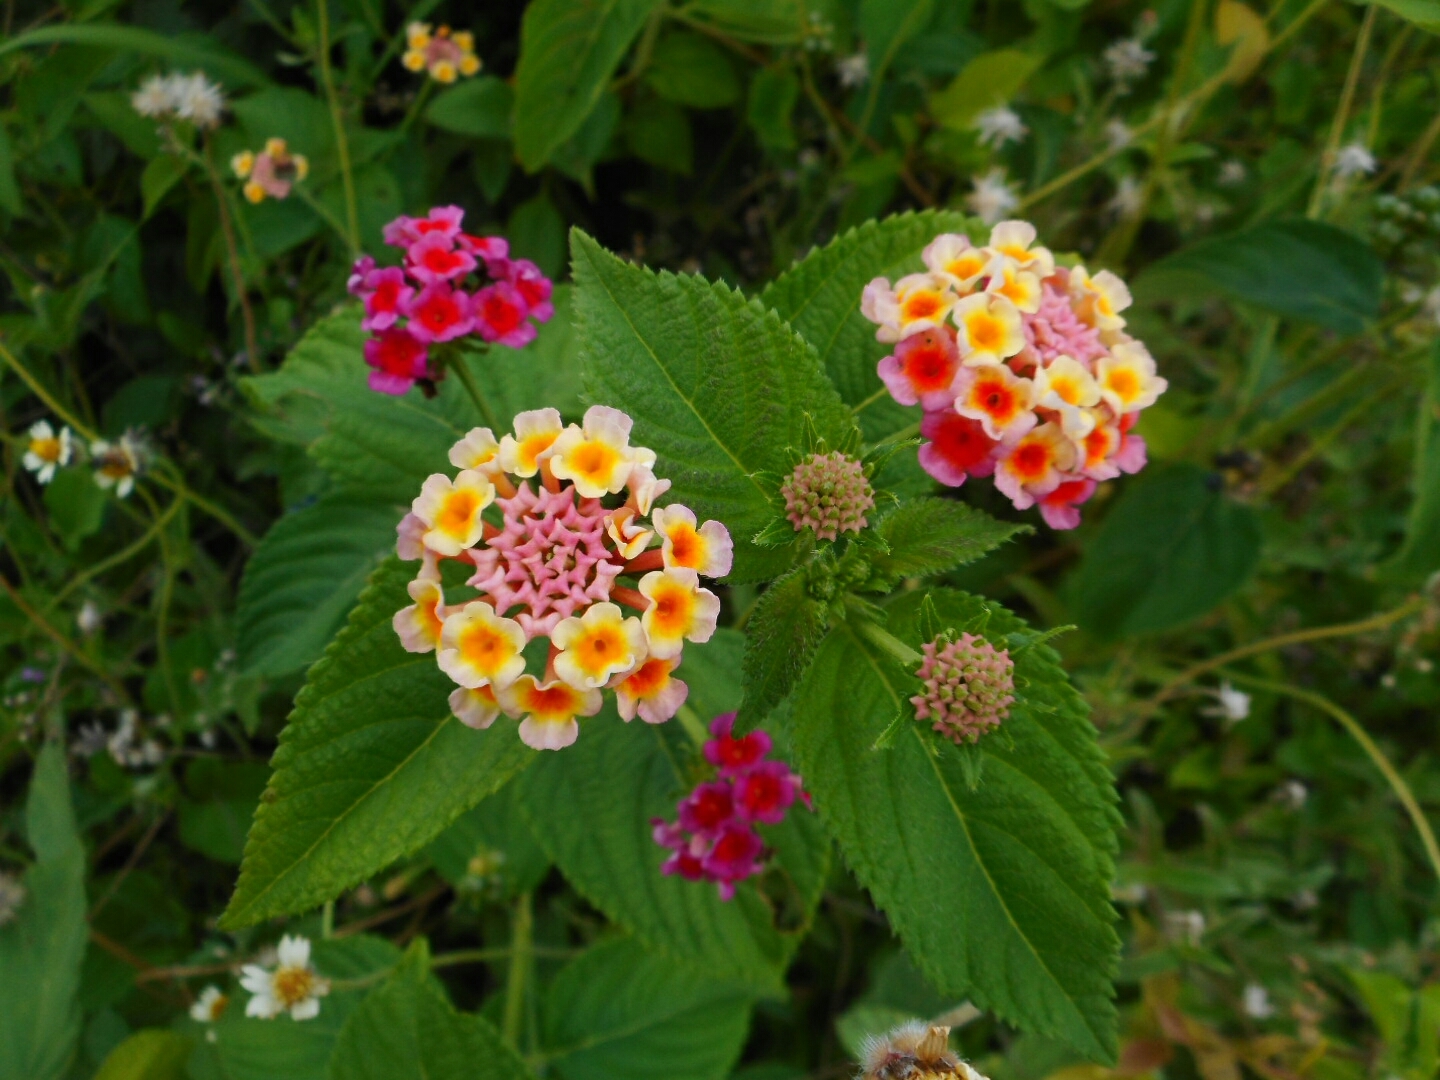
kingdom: Plantae
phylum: Tracheophyta
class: Magnoliopsida
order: Lamiales
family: Verbenaceae
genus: Lantana
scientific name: Lantana camara
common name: Lantana
